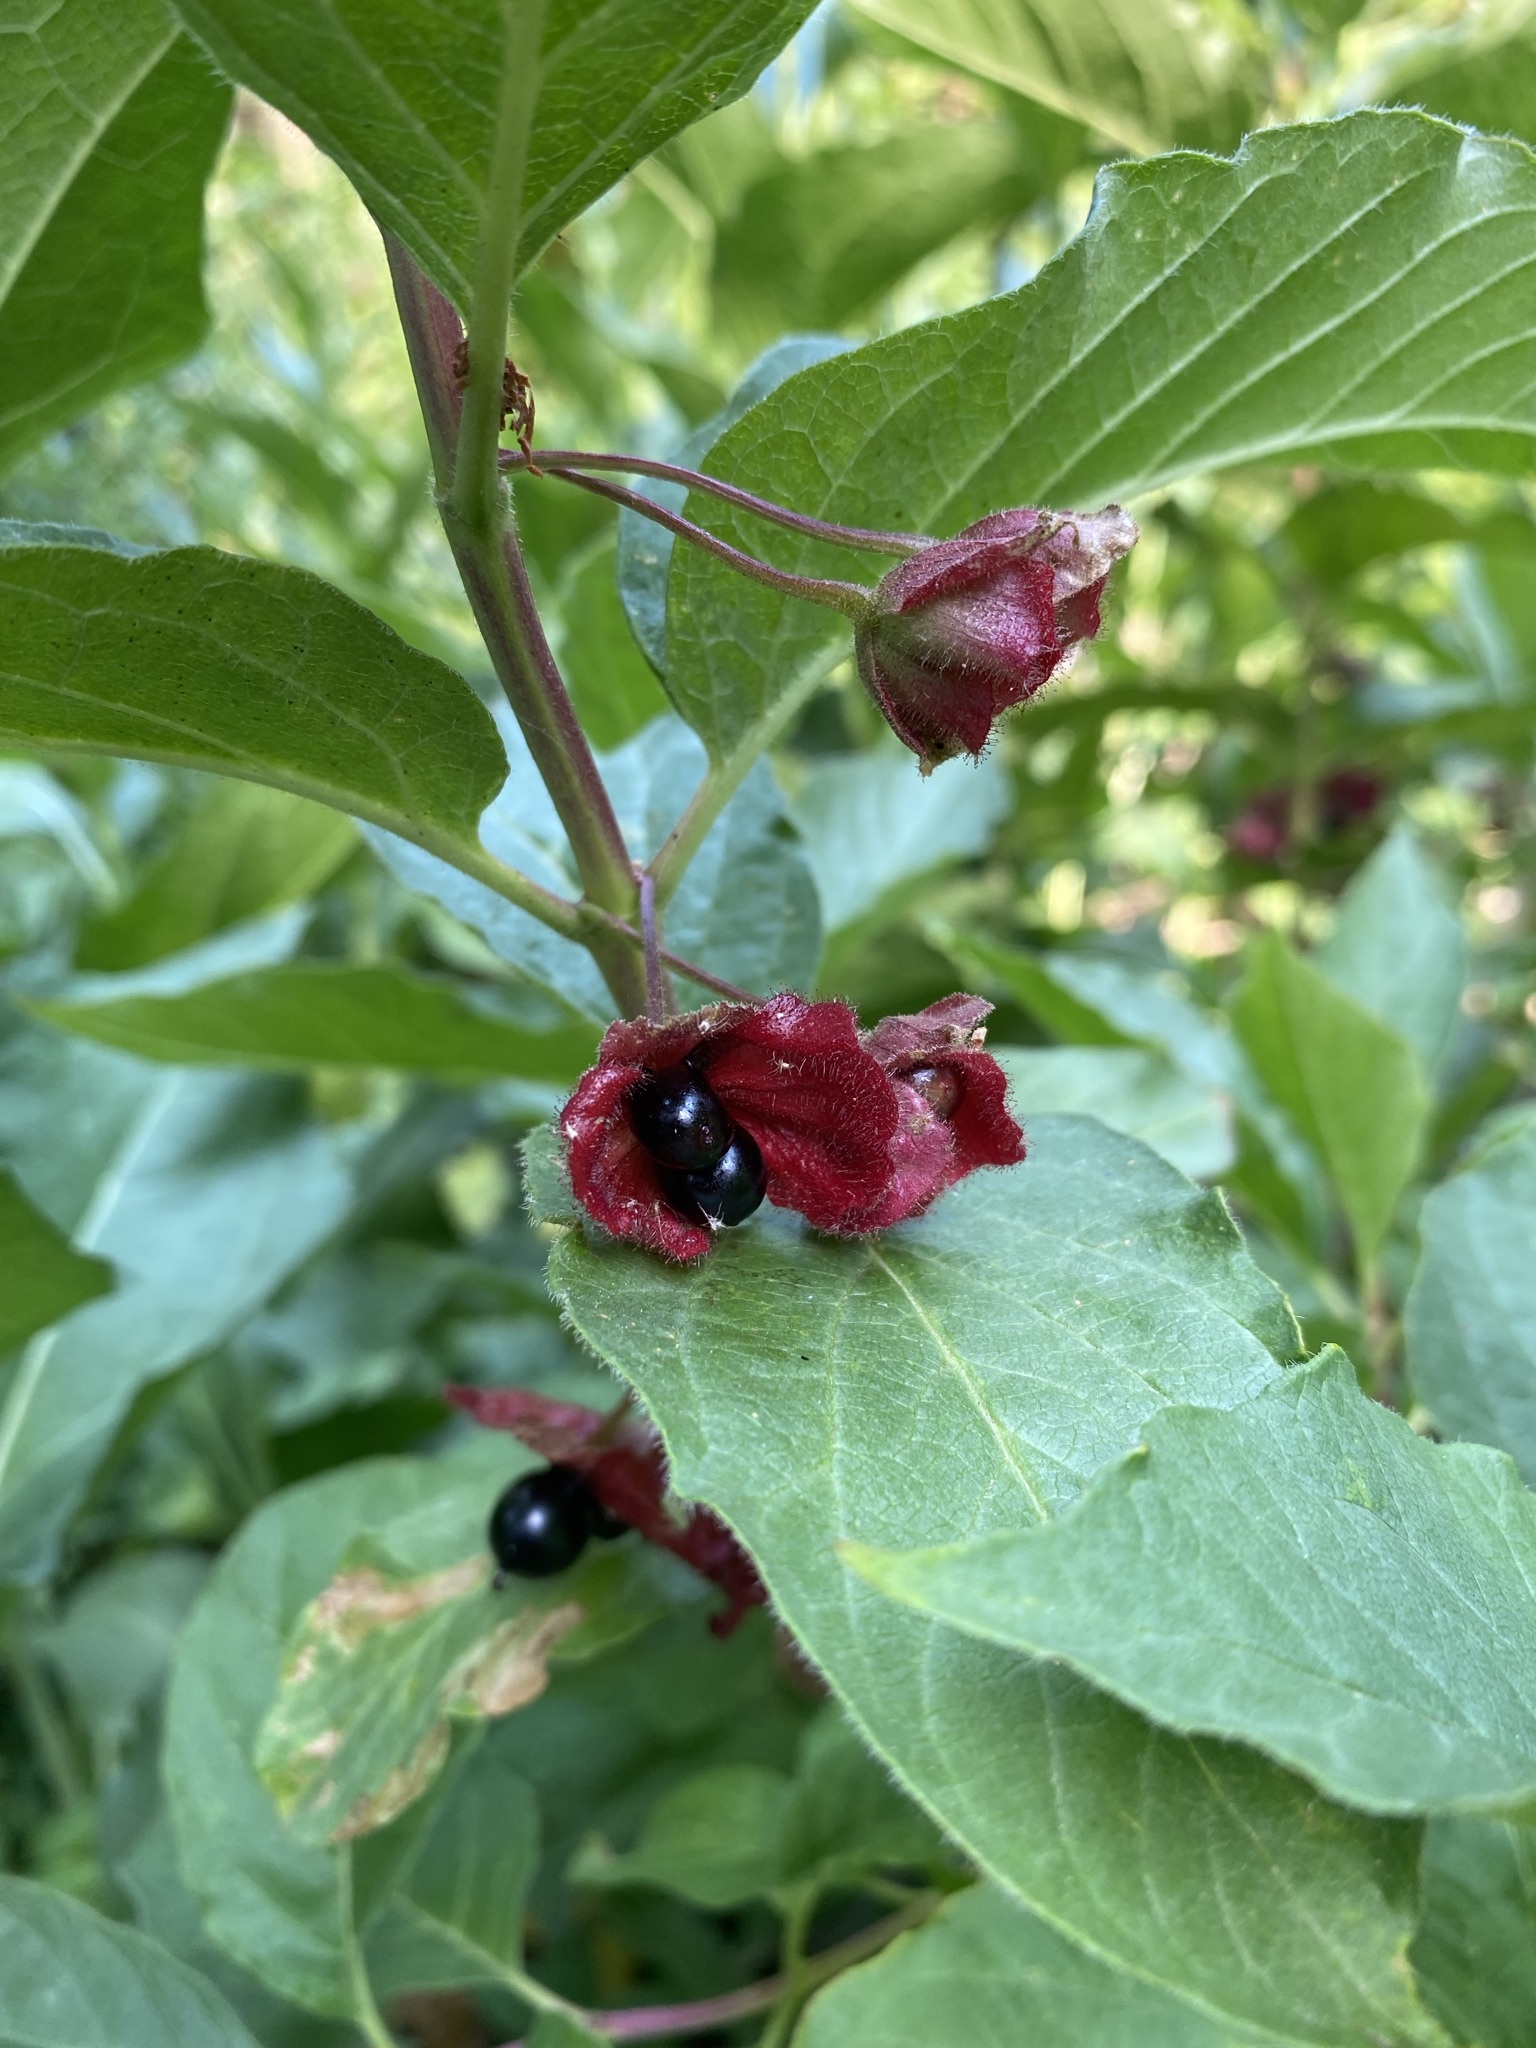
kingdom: Plantae
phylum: Tracheophyta
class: Magnoliopsida
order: Dipsacales
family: Caprifoliaceae
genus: Lonicera
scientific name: Lonicera involucrata
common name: Californian honeysuckle
